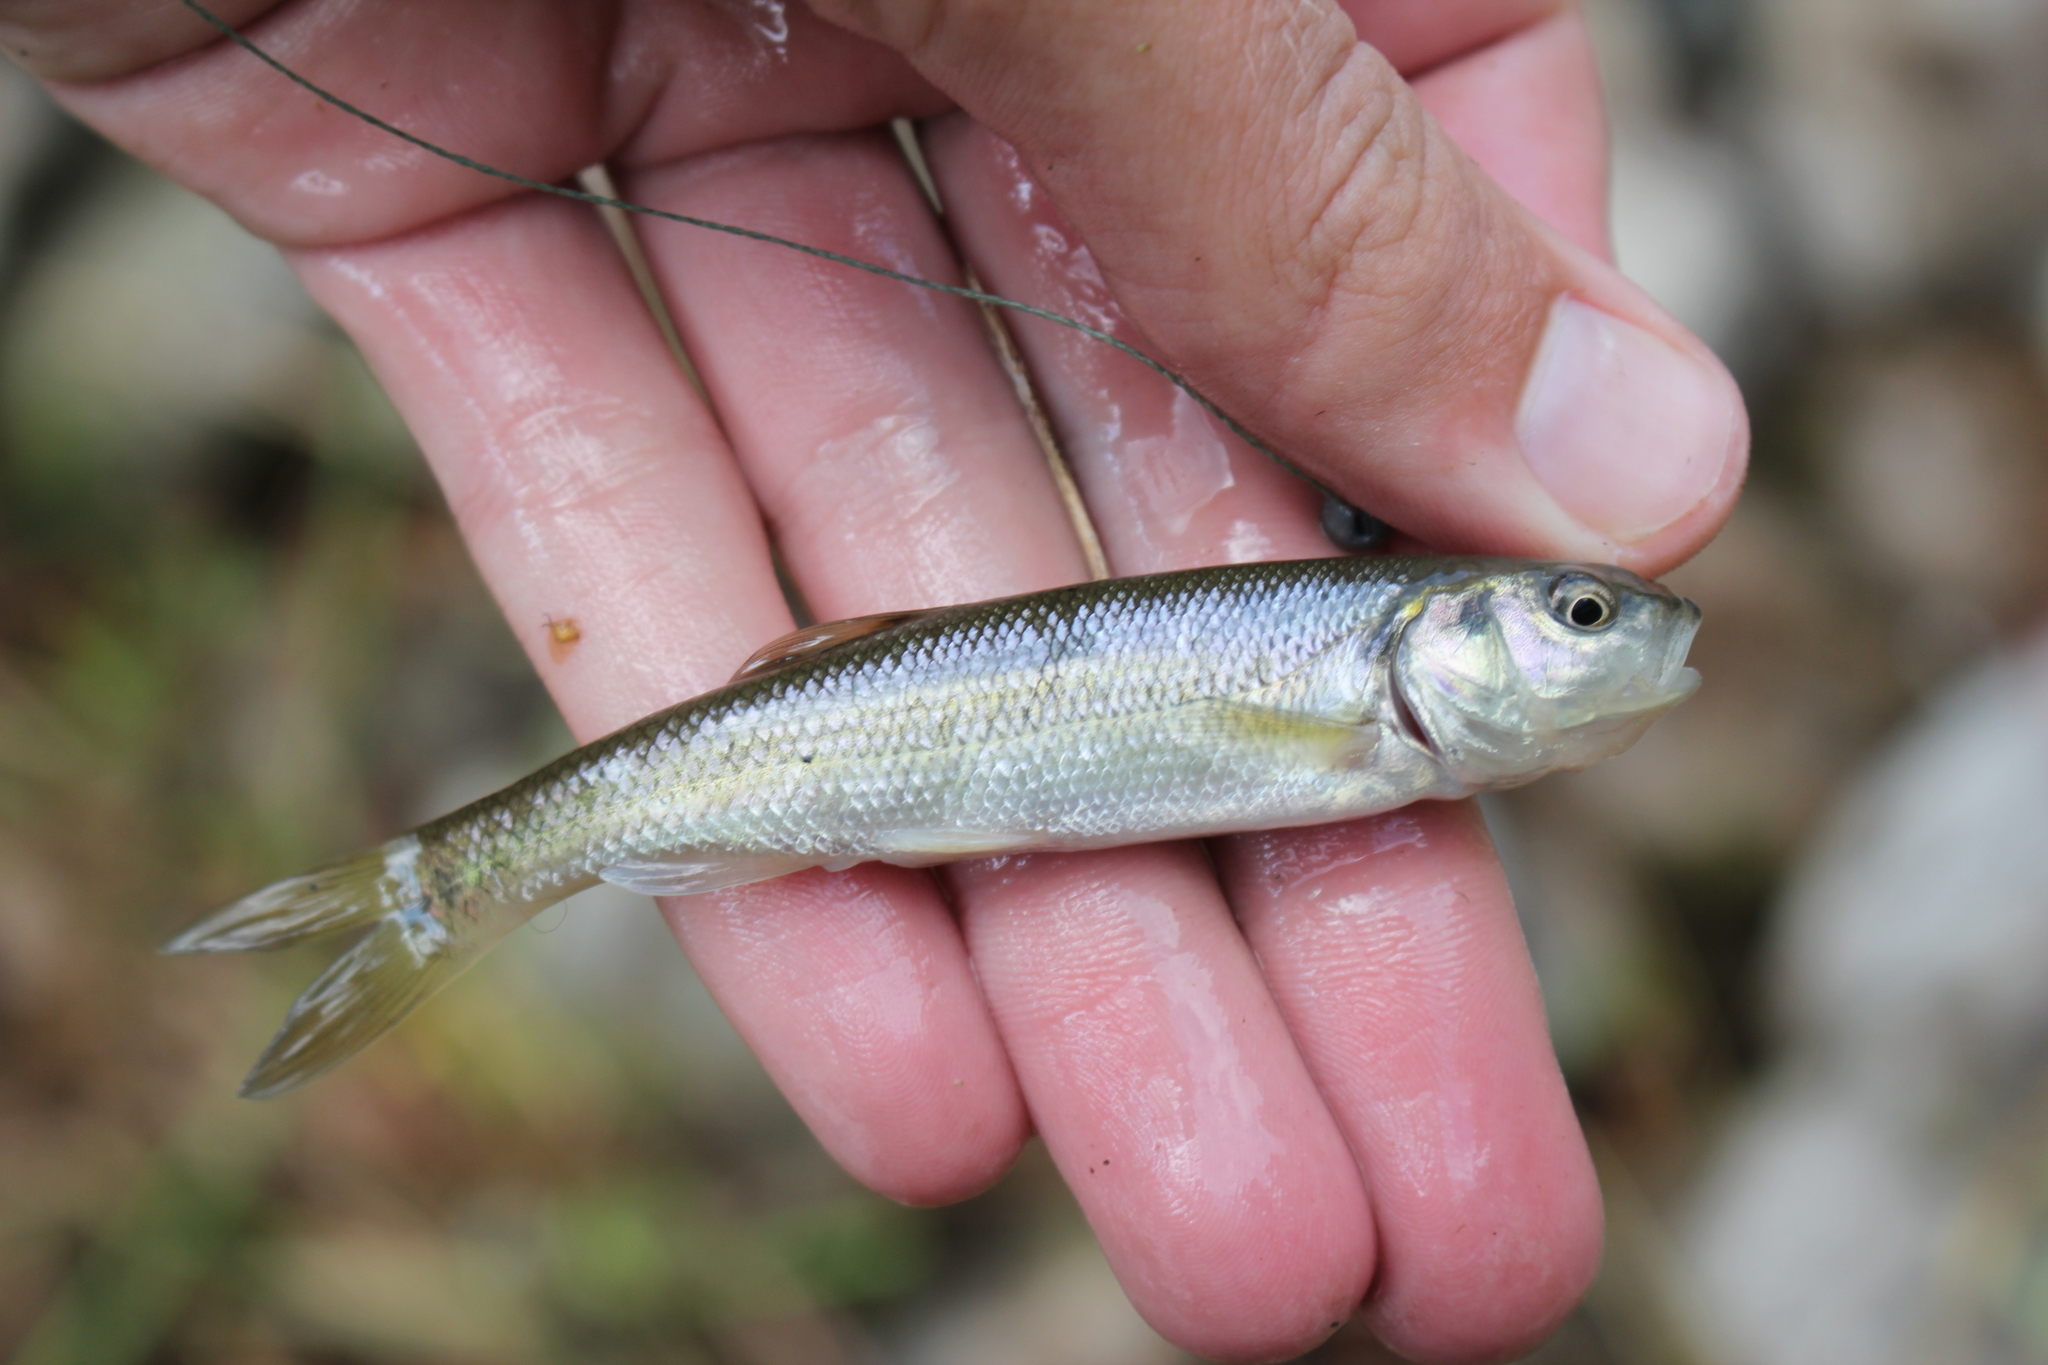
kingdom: Animalia
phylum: Chordata
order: Cypriniformes
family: Cyprinidae
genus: Semotilus
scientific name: Semotilus atromaculatus
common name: Creek chub
